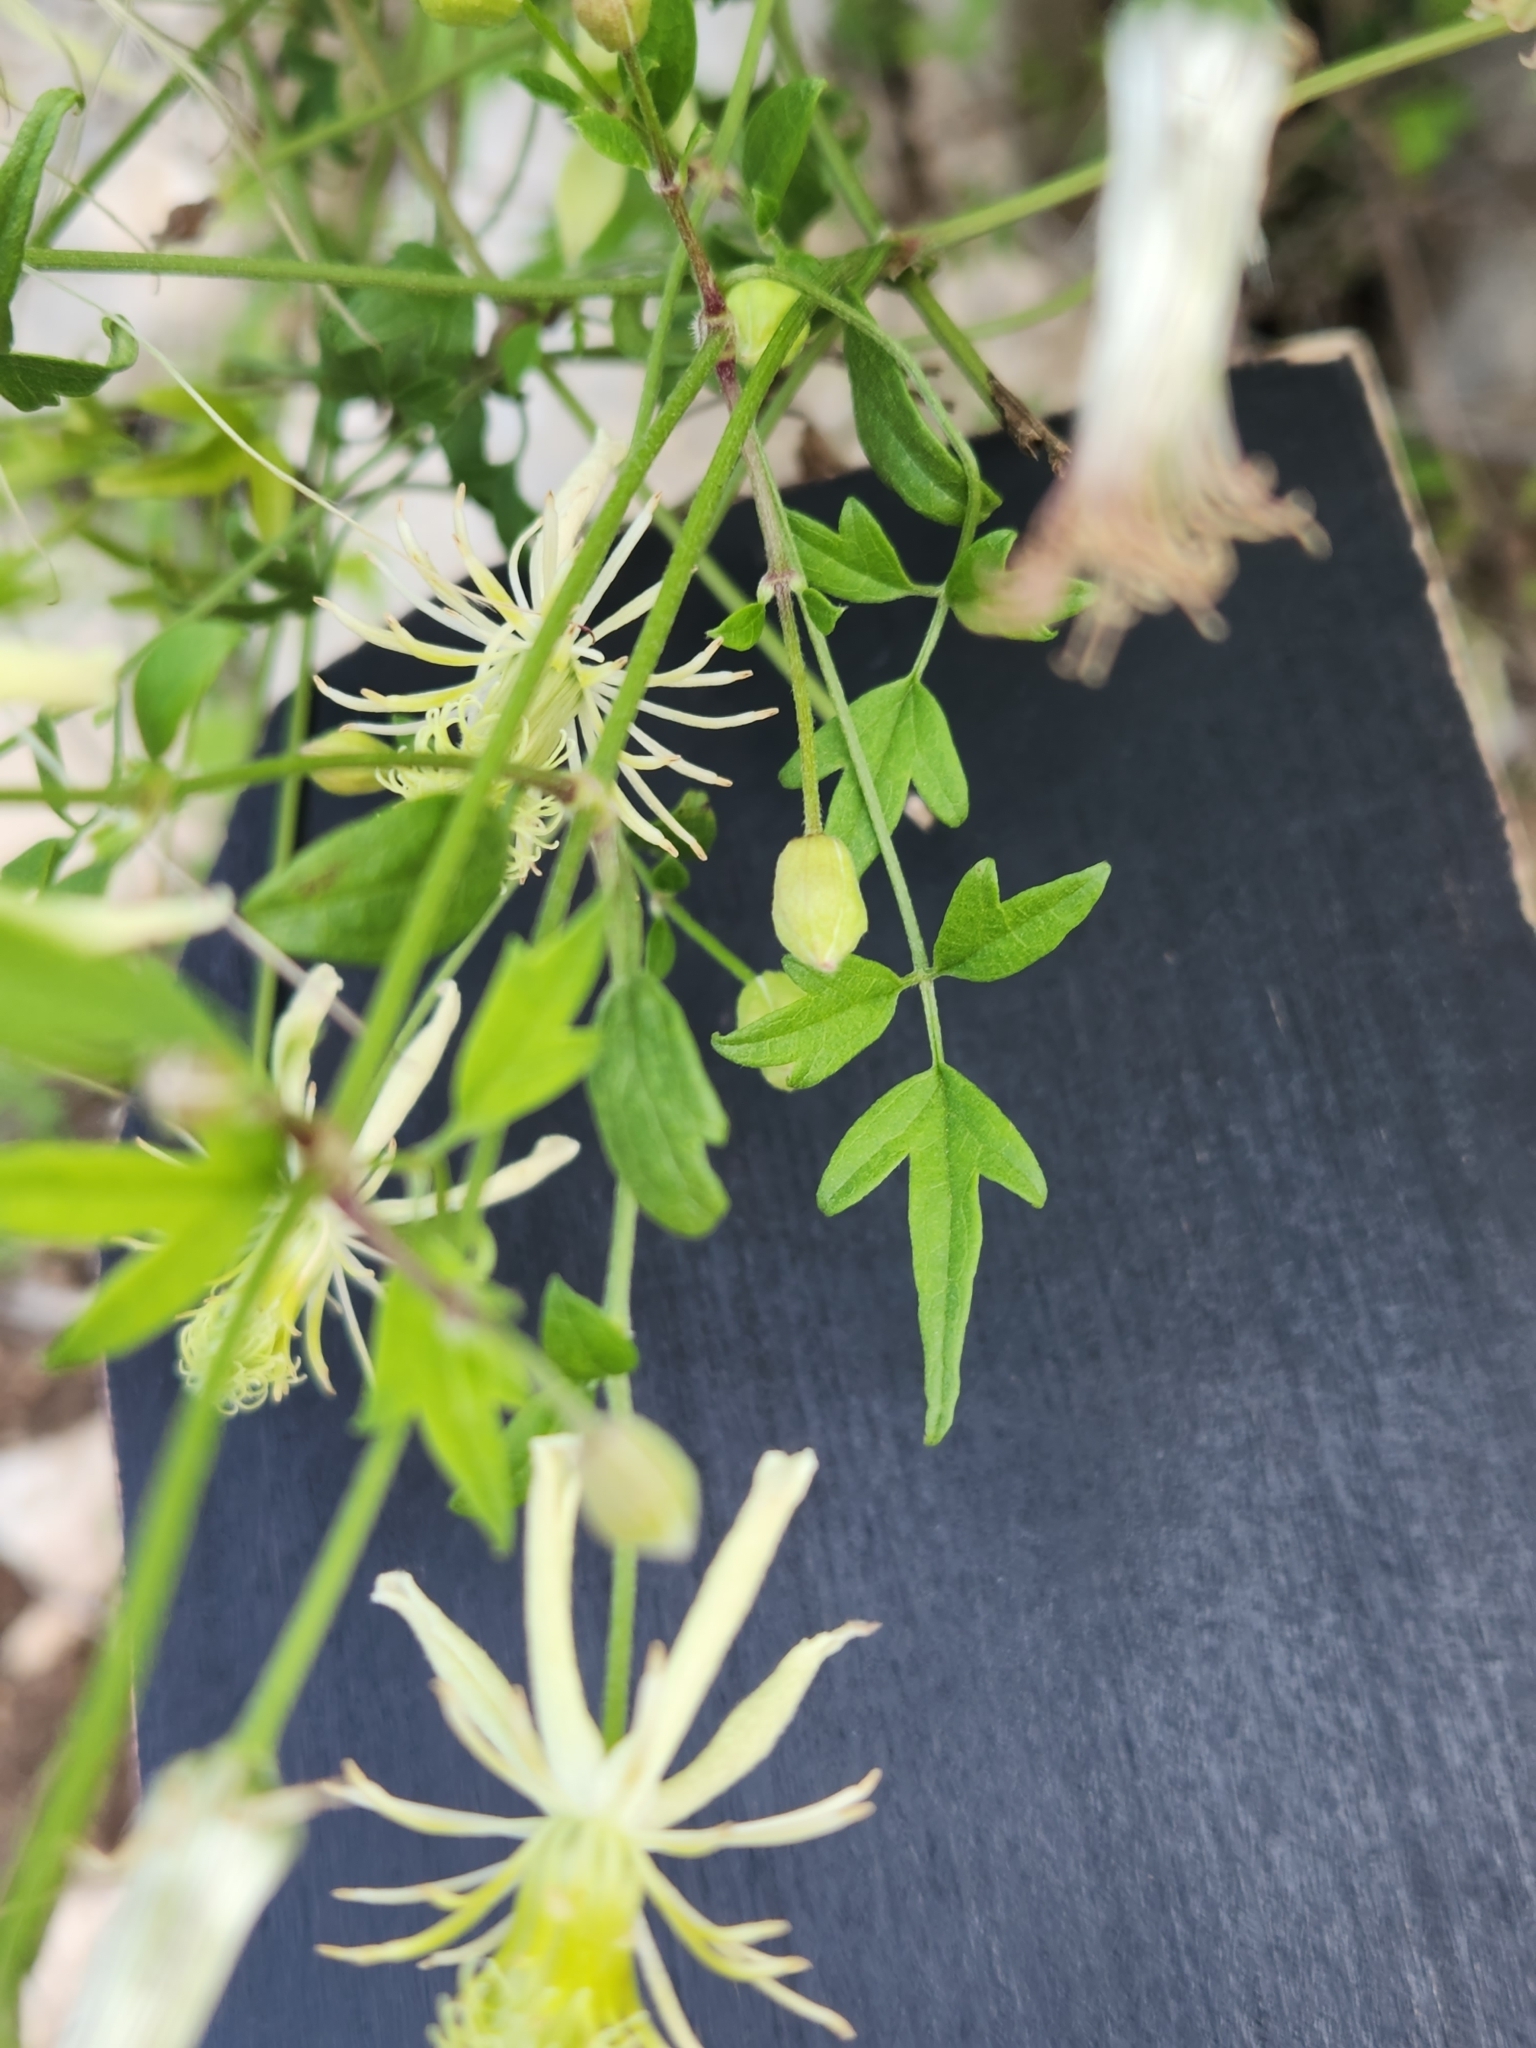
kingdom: Plantae
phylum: Tracheophyta
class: Magnoliopsida
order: Ranunculales
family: Ranunculaceae
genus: Clematis
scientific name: Clematis drummondii
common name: Texas virgin's bower
